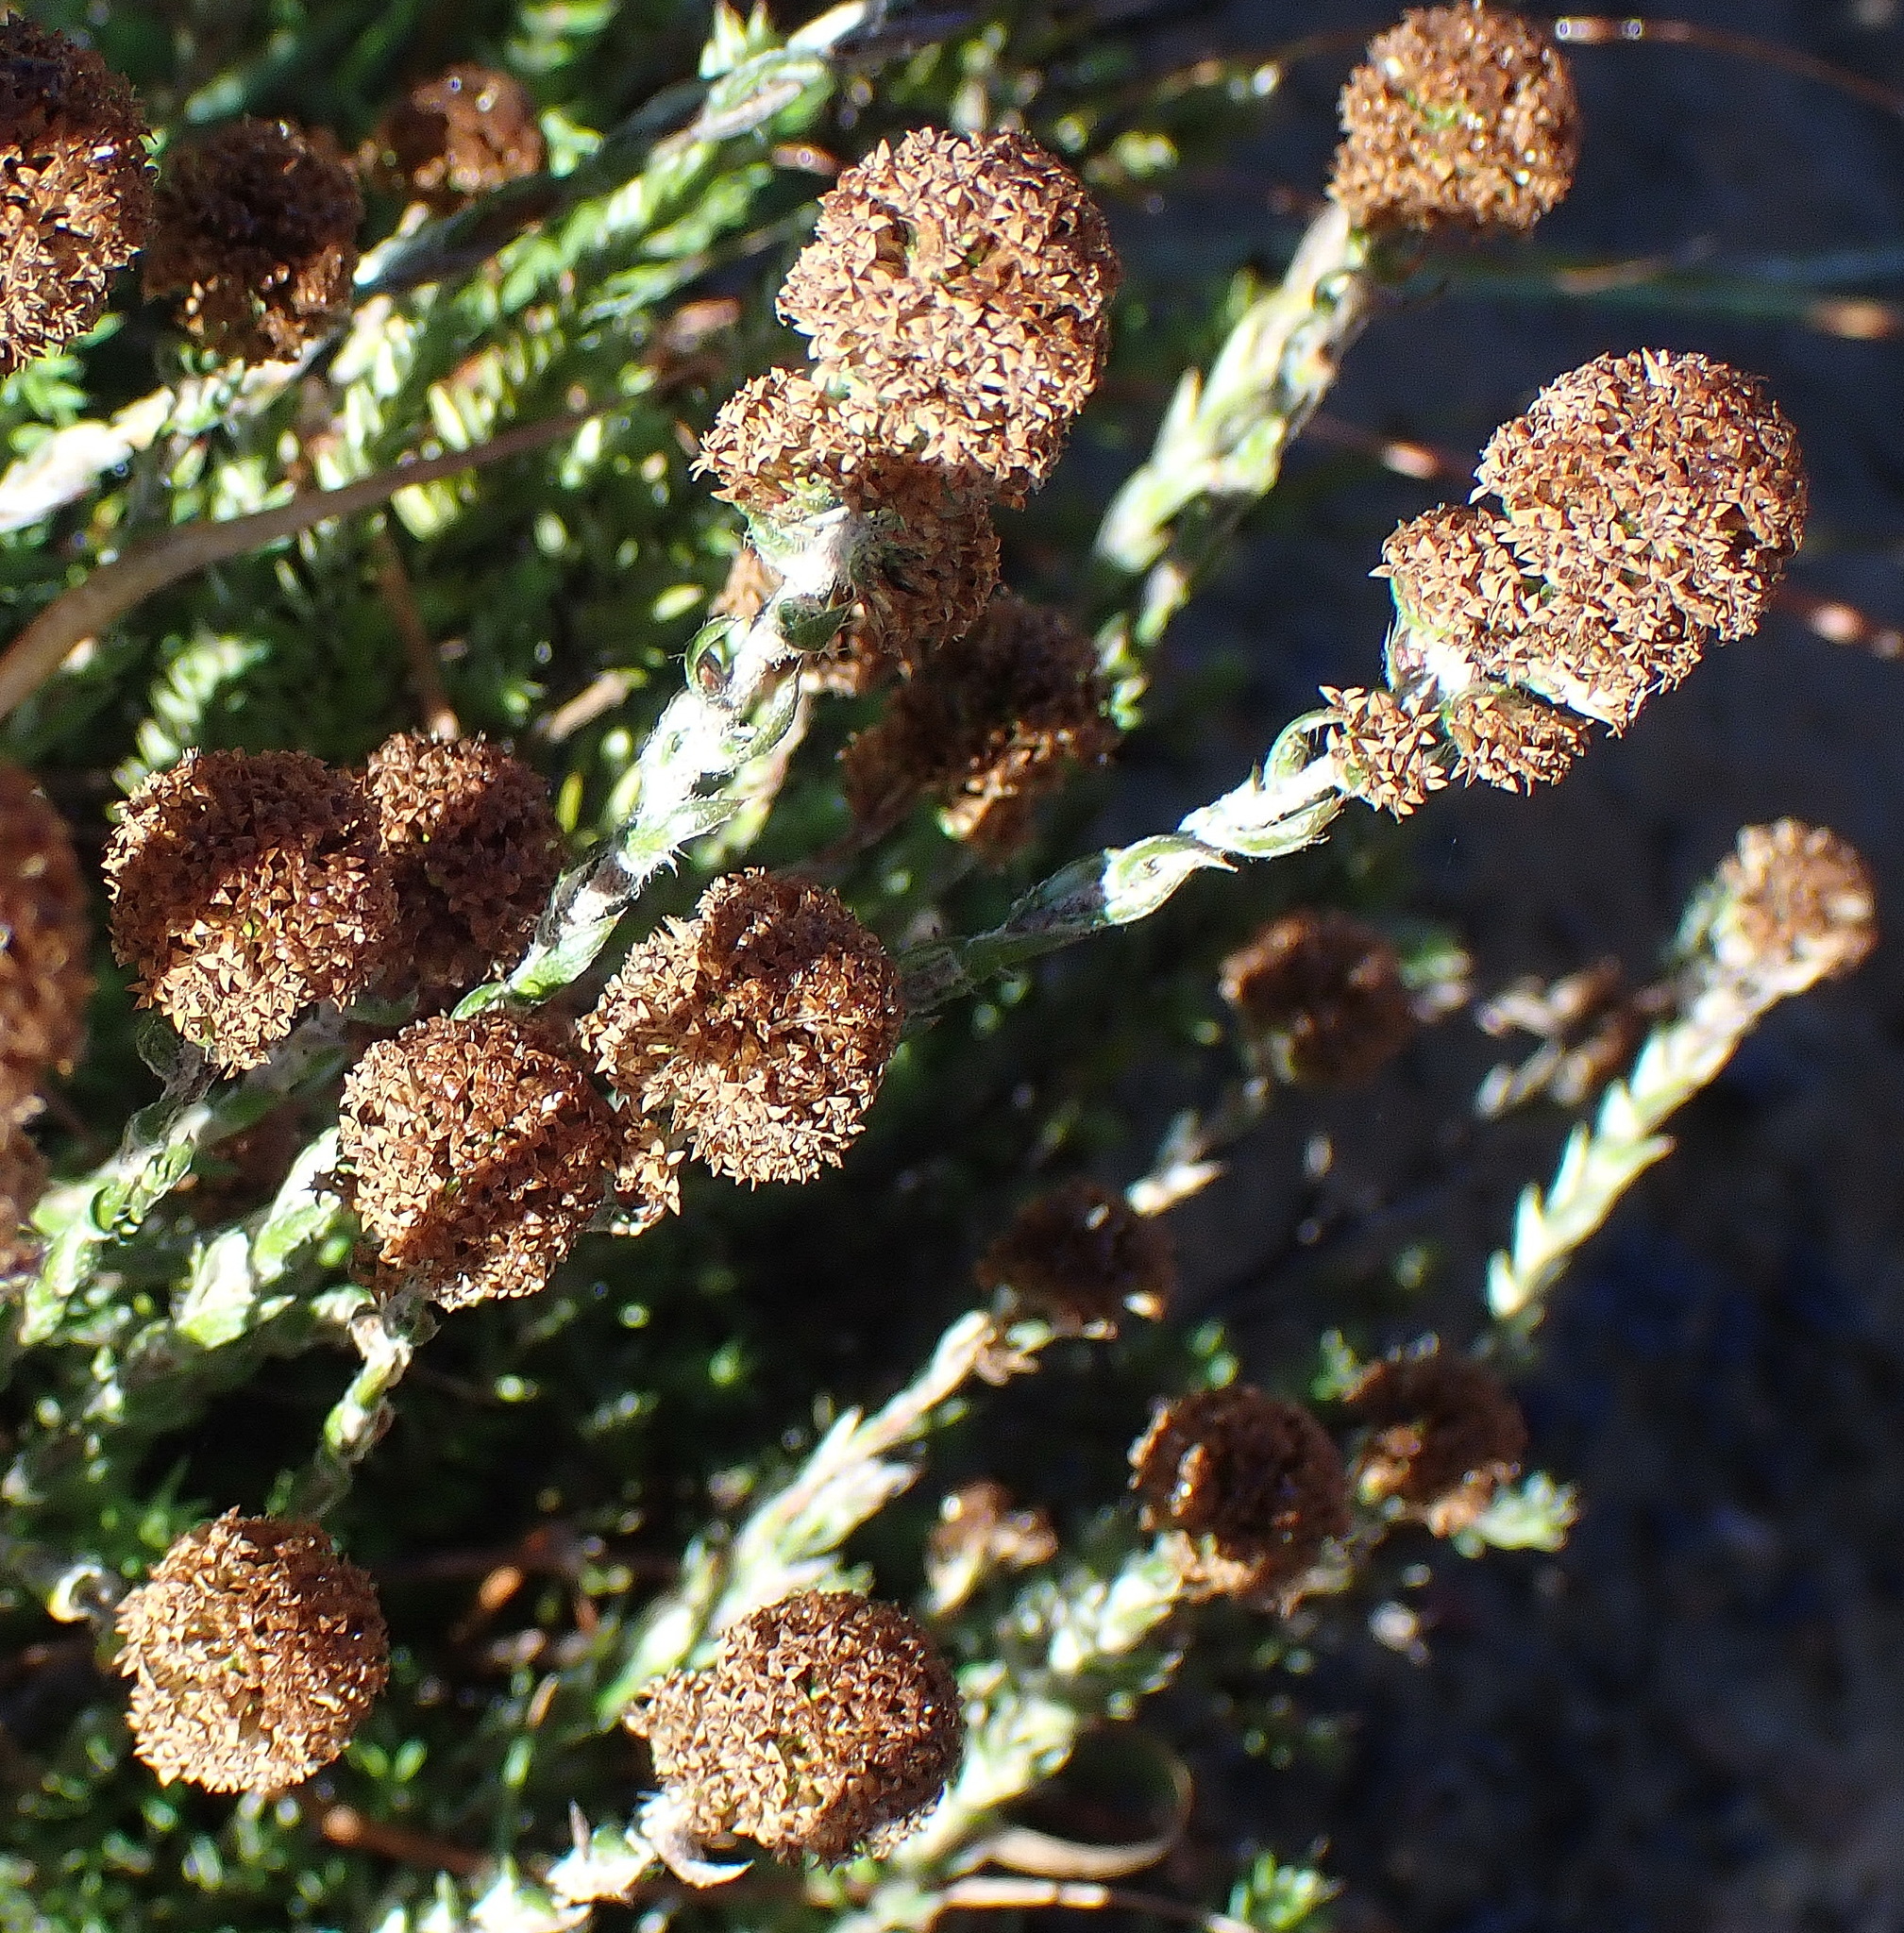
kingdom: Plantae
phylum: Tracheophyta
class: Magnoliopsida
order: Asterales
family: Asteraceae
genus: Disparago
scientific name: Disparago anomala
